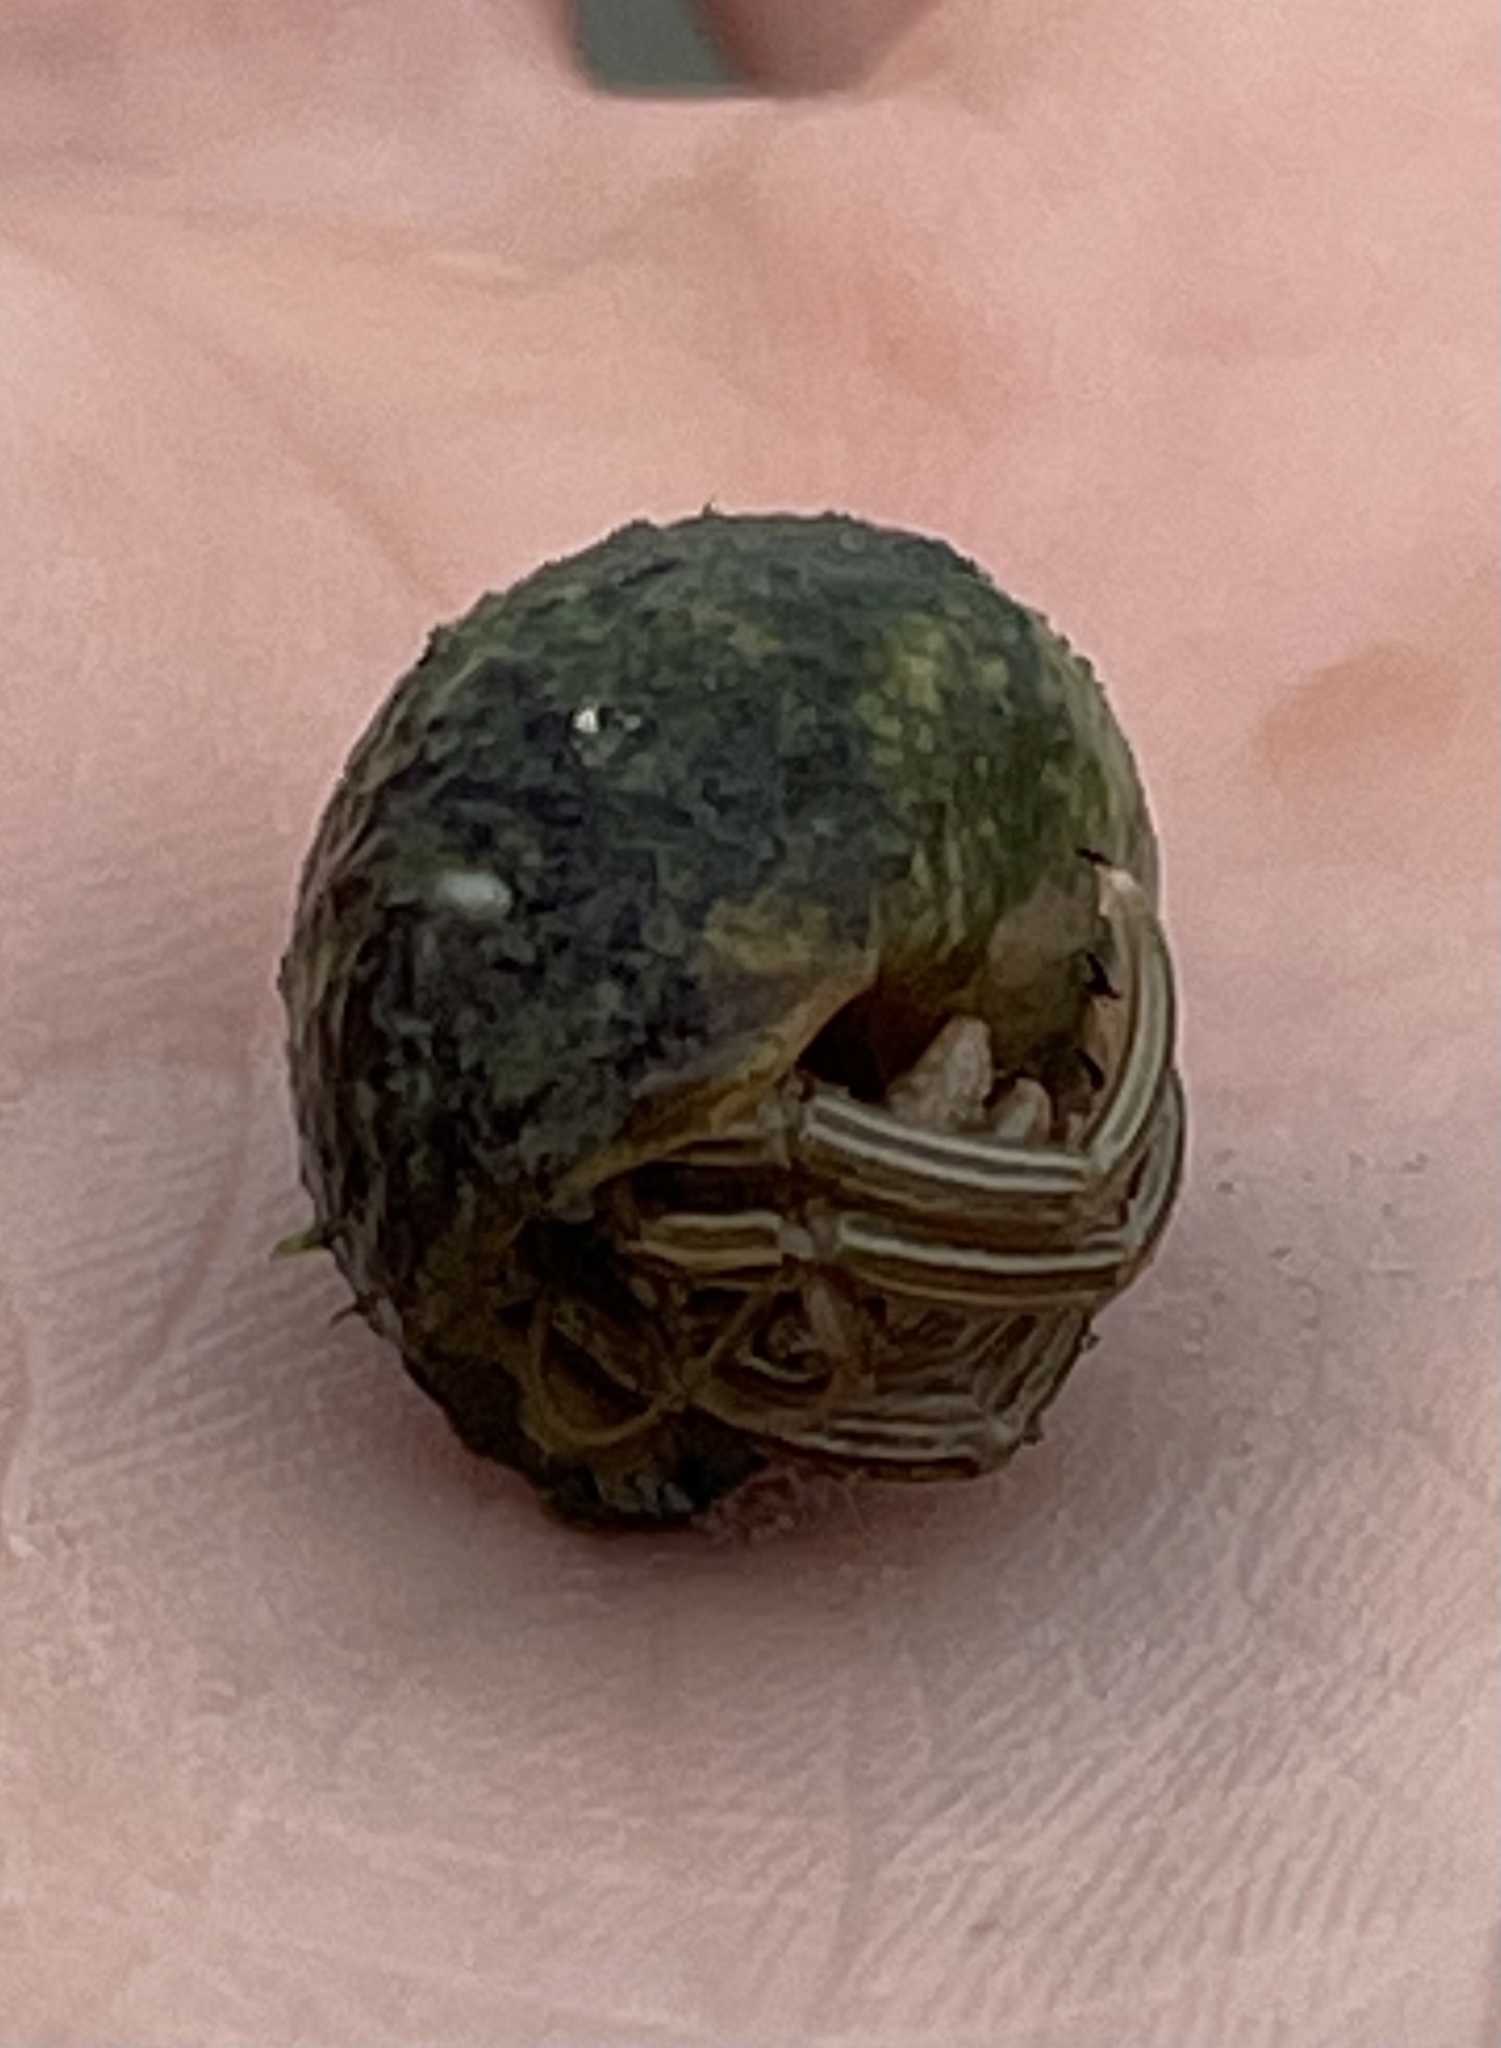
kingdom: Animalia
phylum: Arthropoda
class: Malacostraca
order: Decapoda
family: Diogenidae
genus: Clibanarius
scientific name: Clibanarius vittatus
